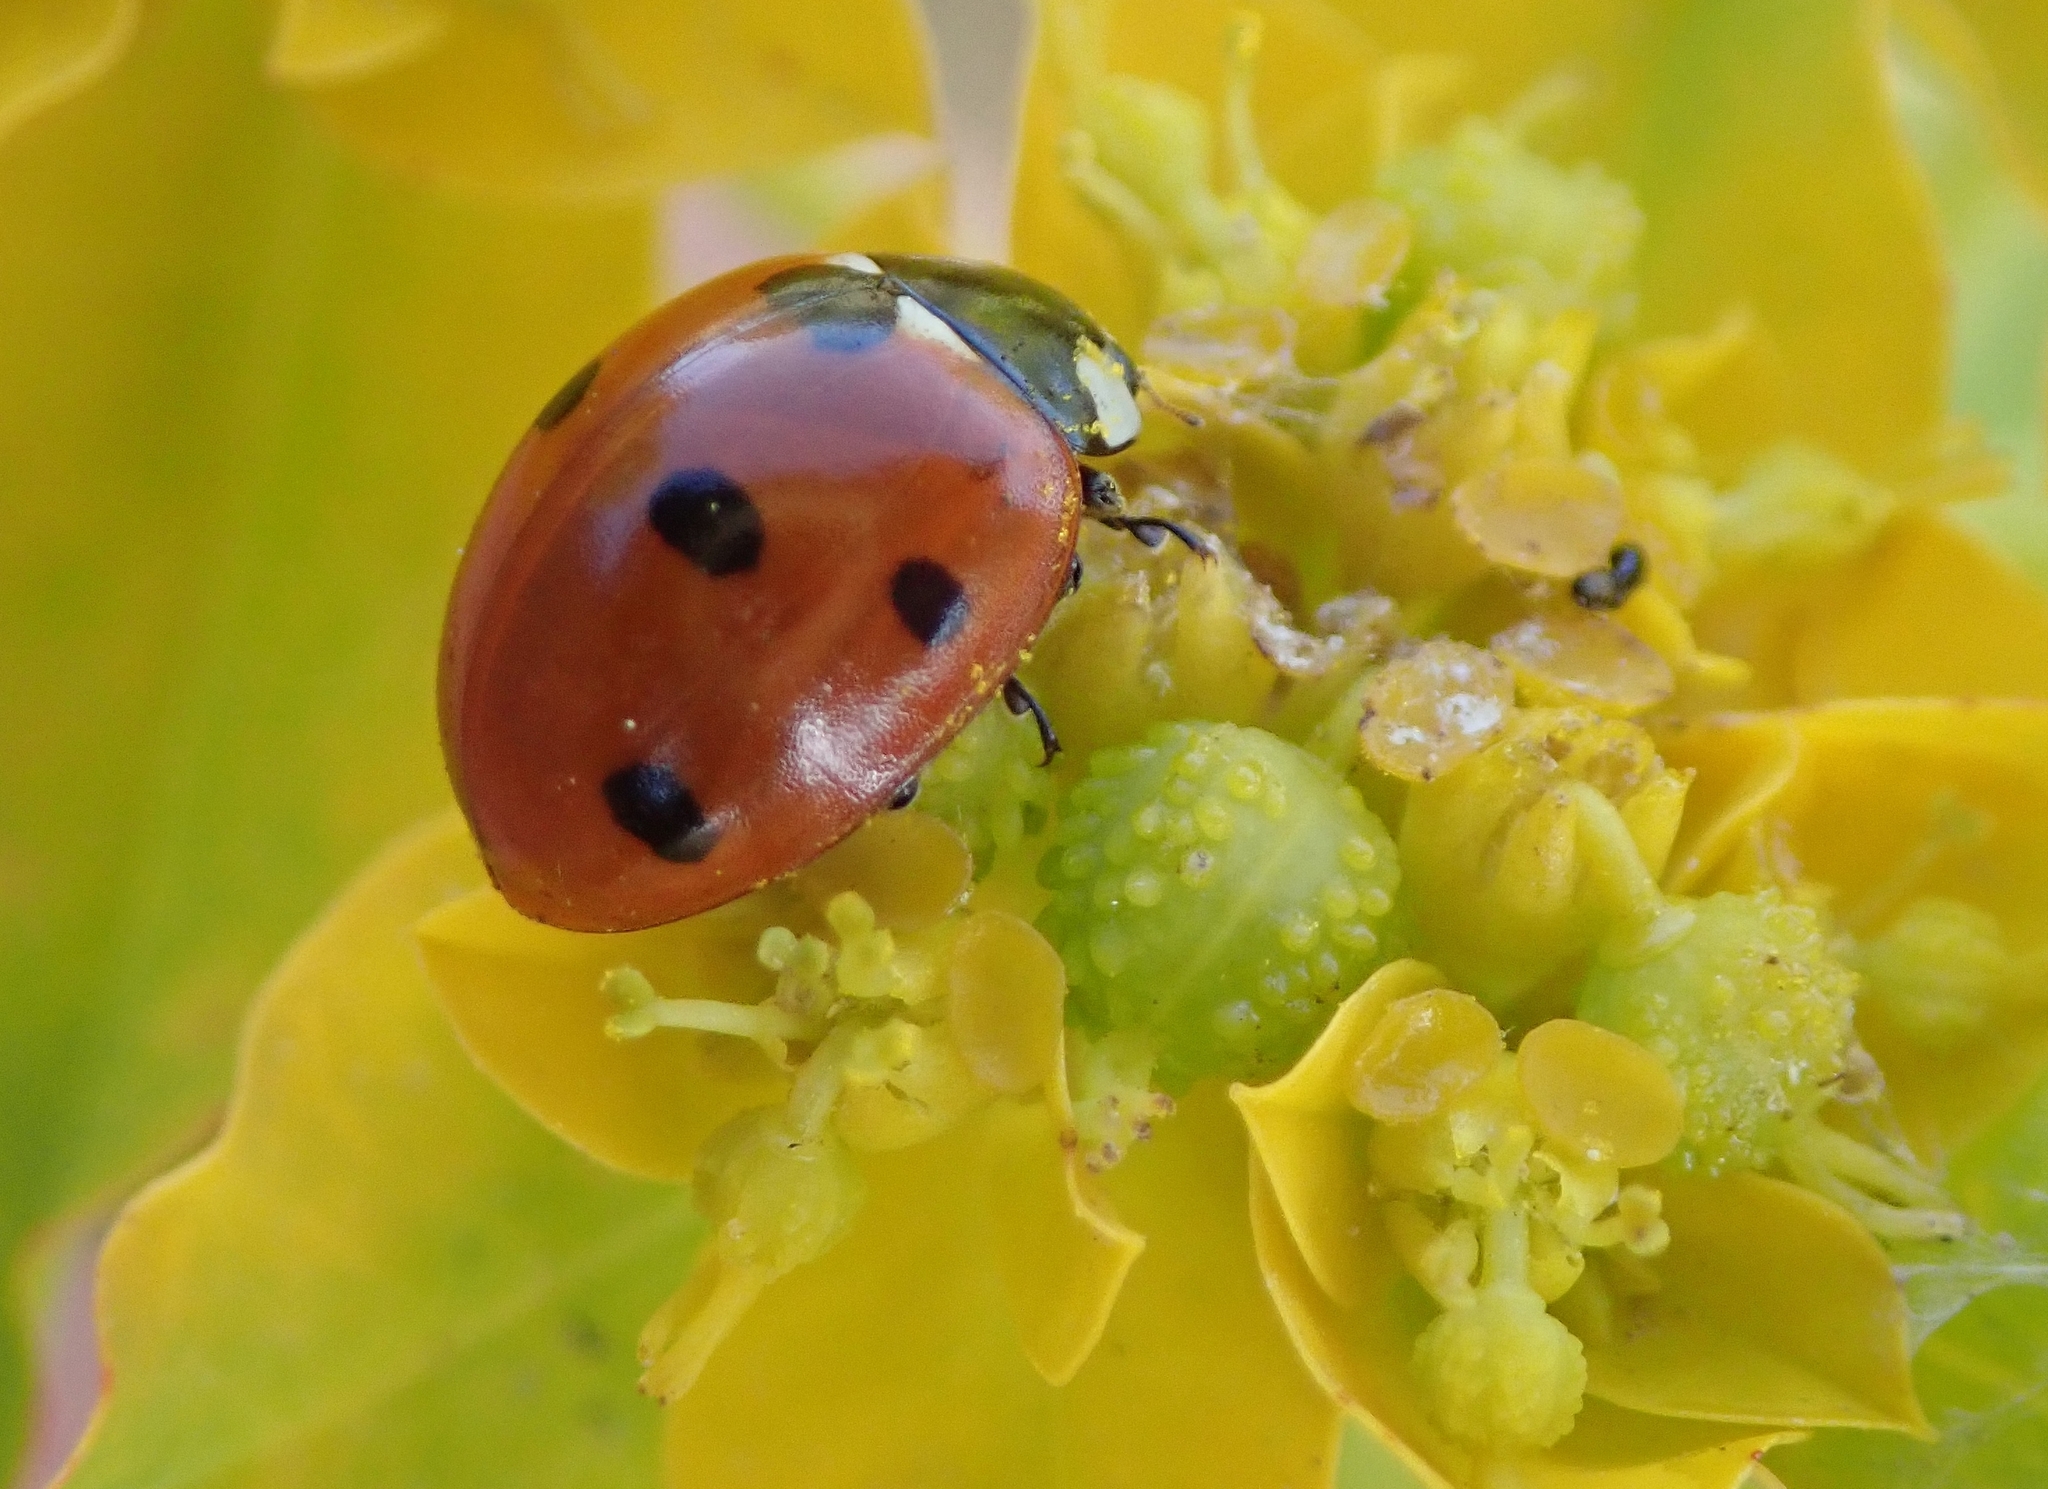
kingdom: Animalia
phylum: Arthropoda
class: Insecta
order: Coleoptera
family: Coccinellidae
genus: Coccinella
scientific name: Coccinella septempunctata
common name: Sevenspotted lady beetle
